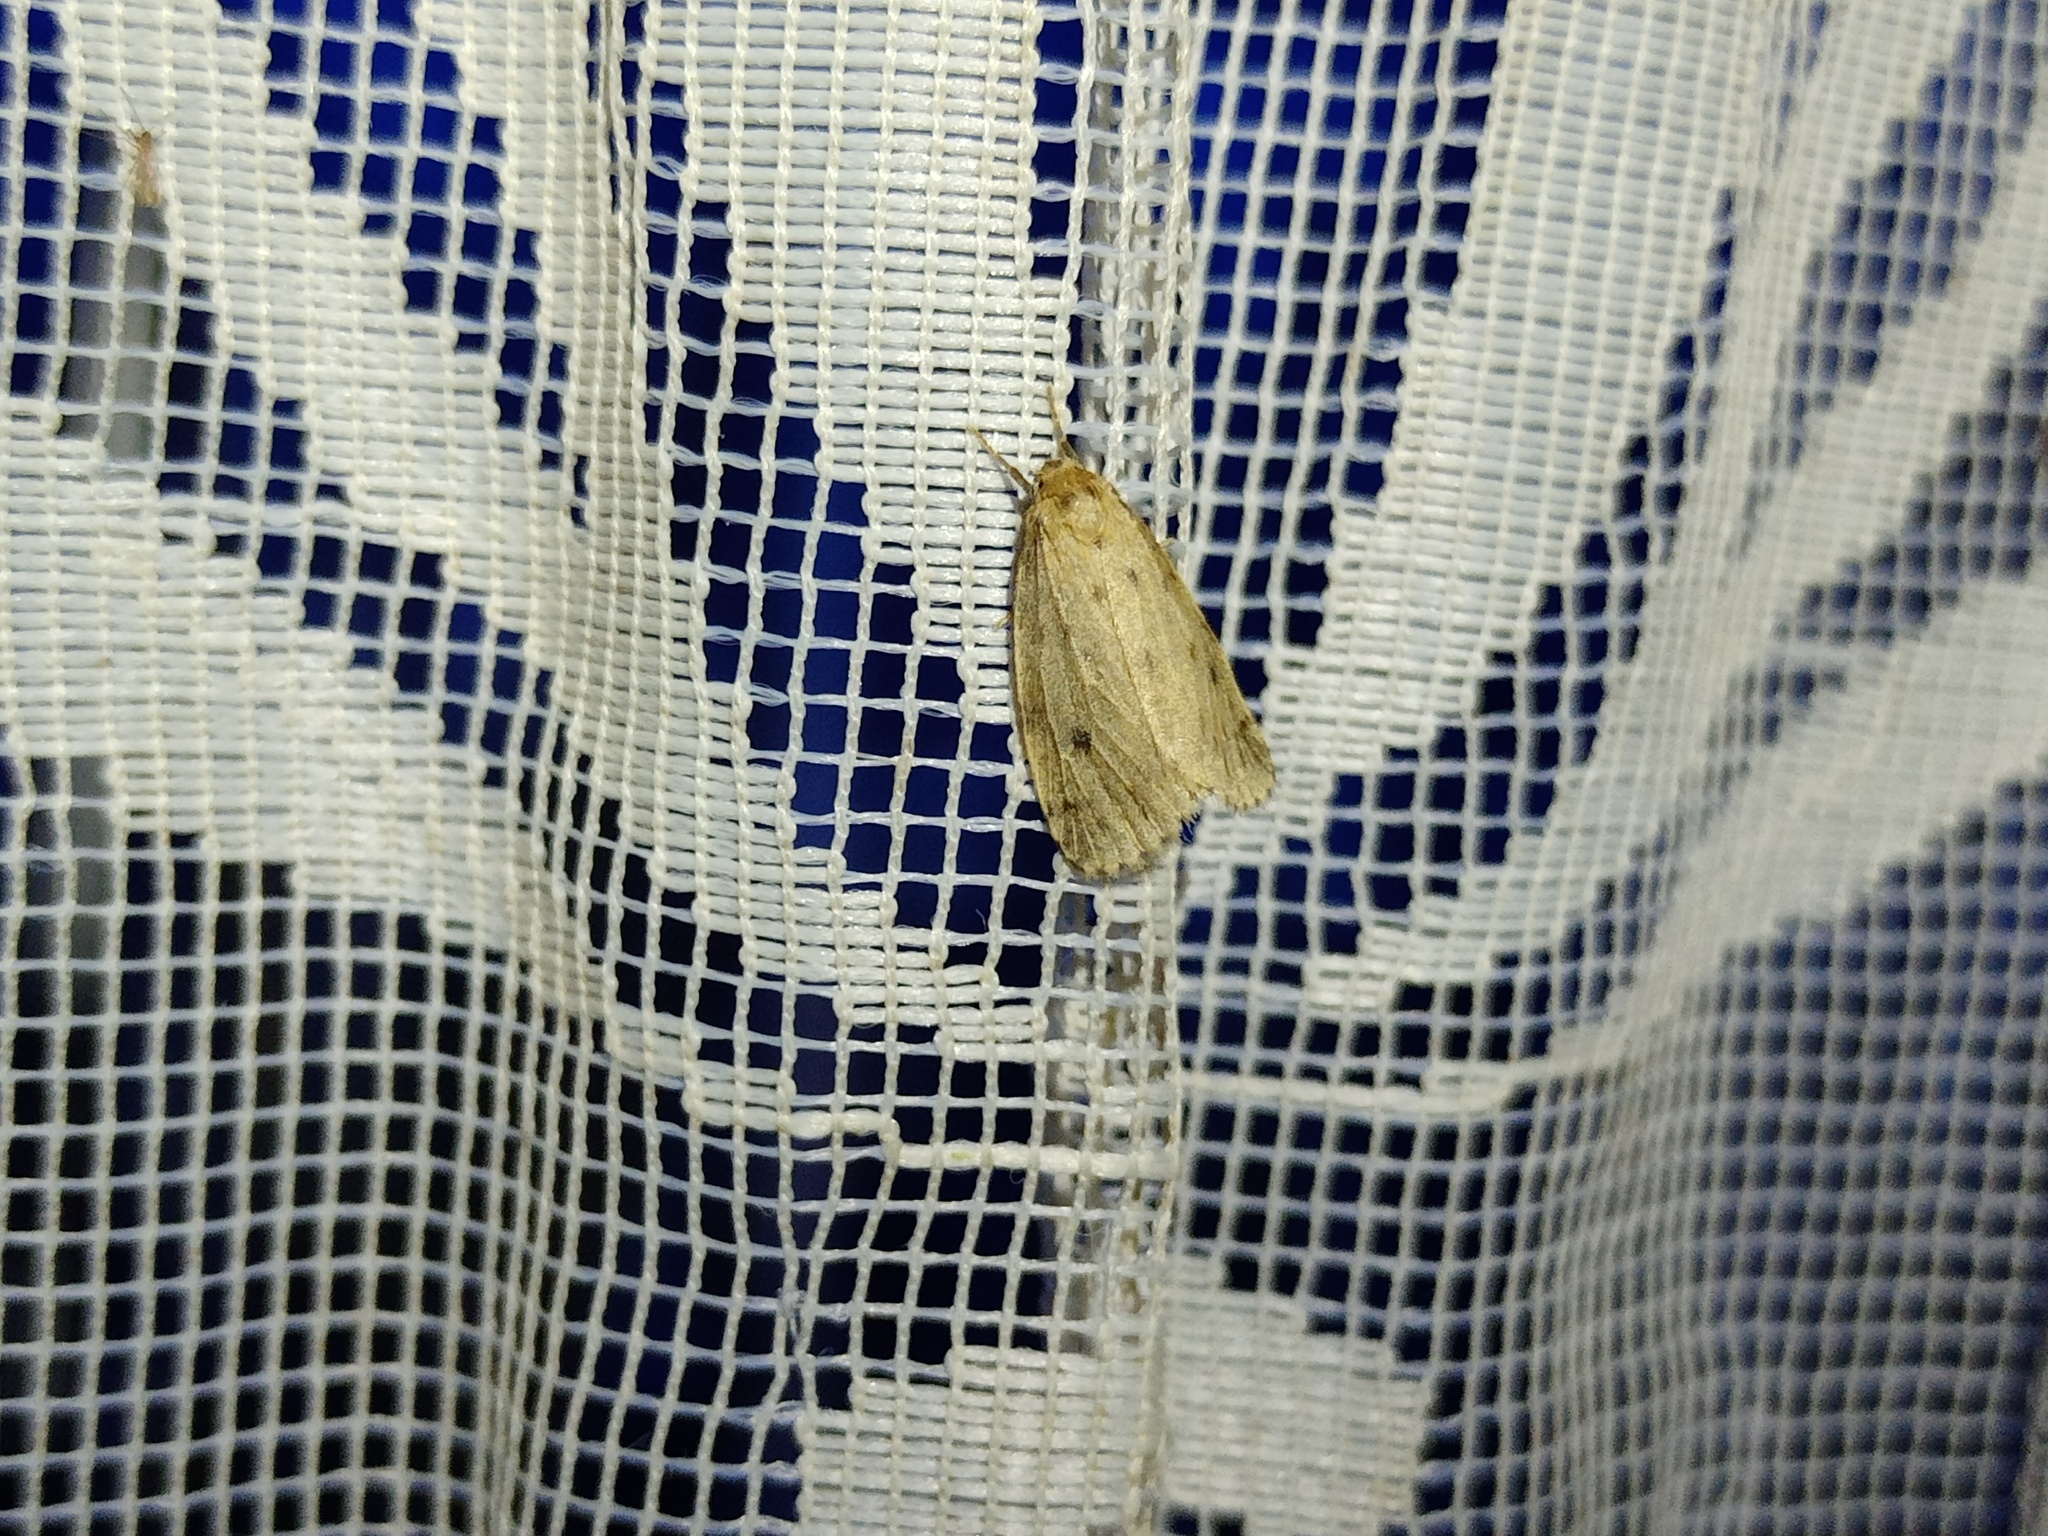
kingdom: Animalia
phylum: Arthropoda
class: Insecta
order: Lepidoptera
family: Erebidae
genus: Thumatha
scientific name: Thumatha senex
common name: Round-winged muslin
